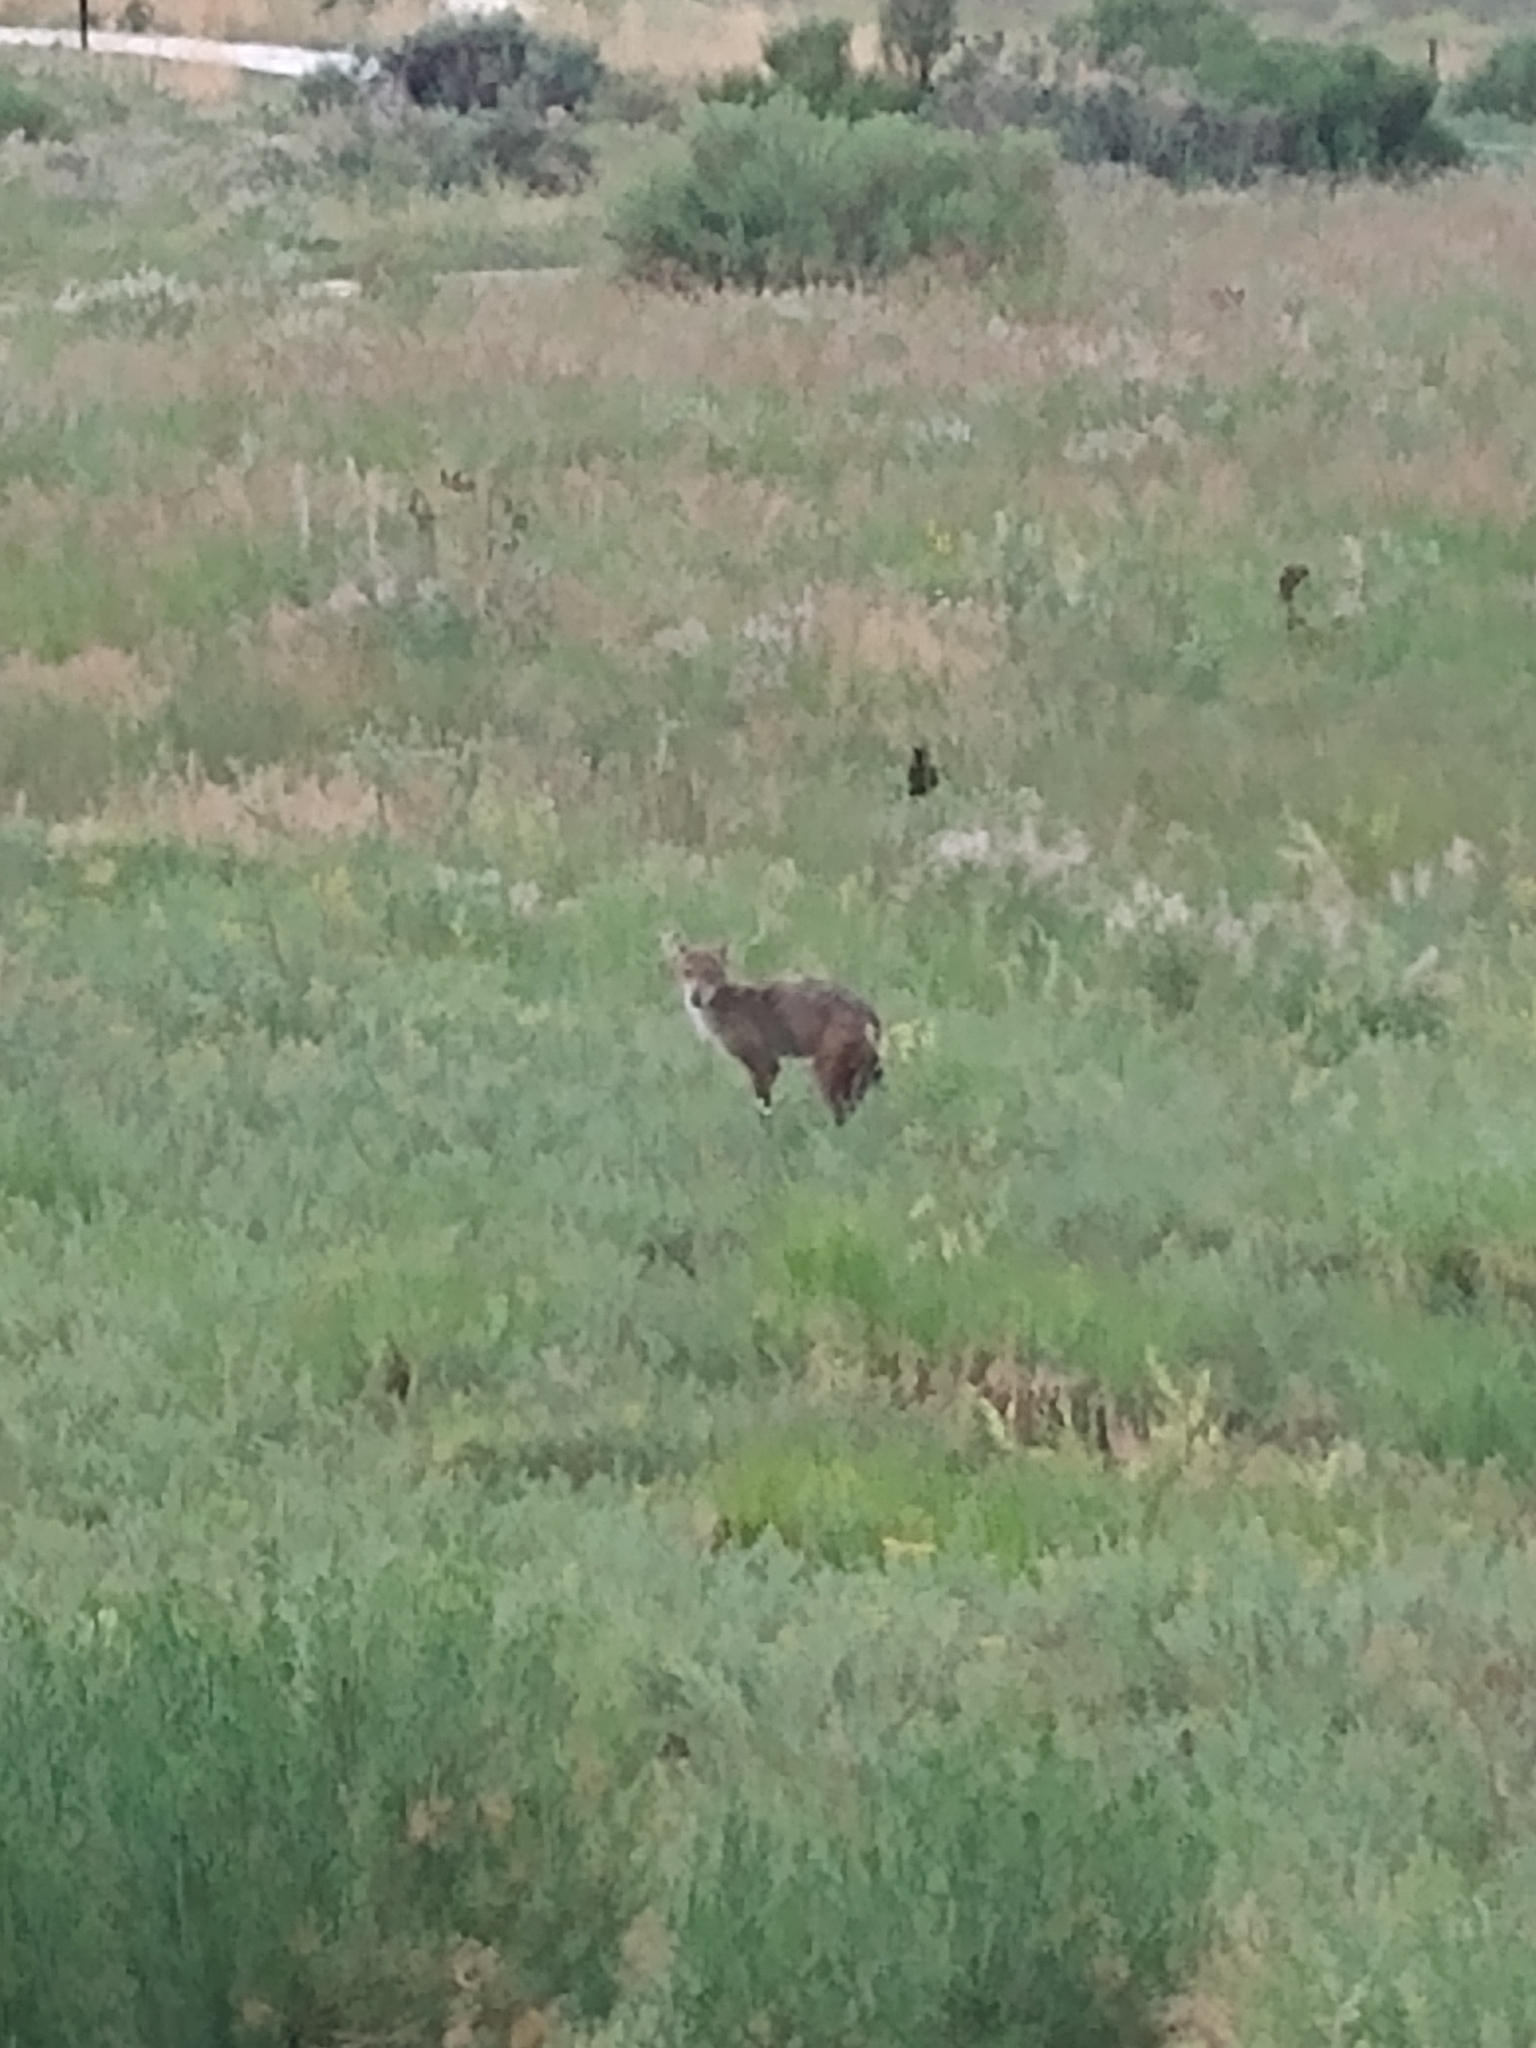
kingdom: Animalia
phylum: Chordata
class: Mammalia
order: Carnivora
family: Canidae
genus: Canis
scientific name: Canis latrans
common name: Coyote
